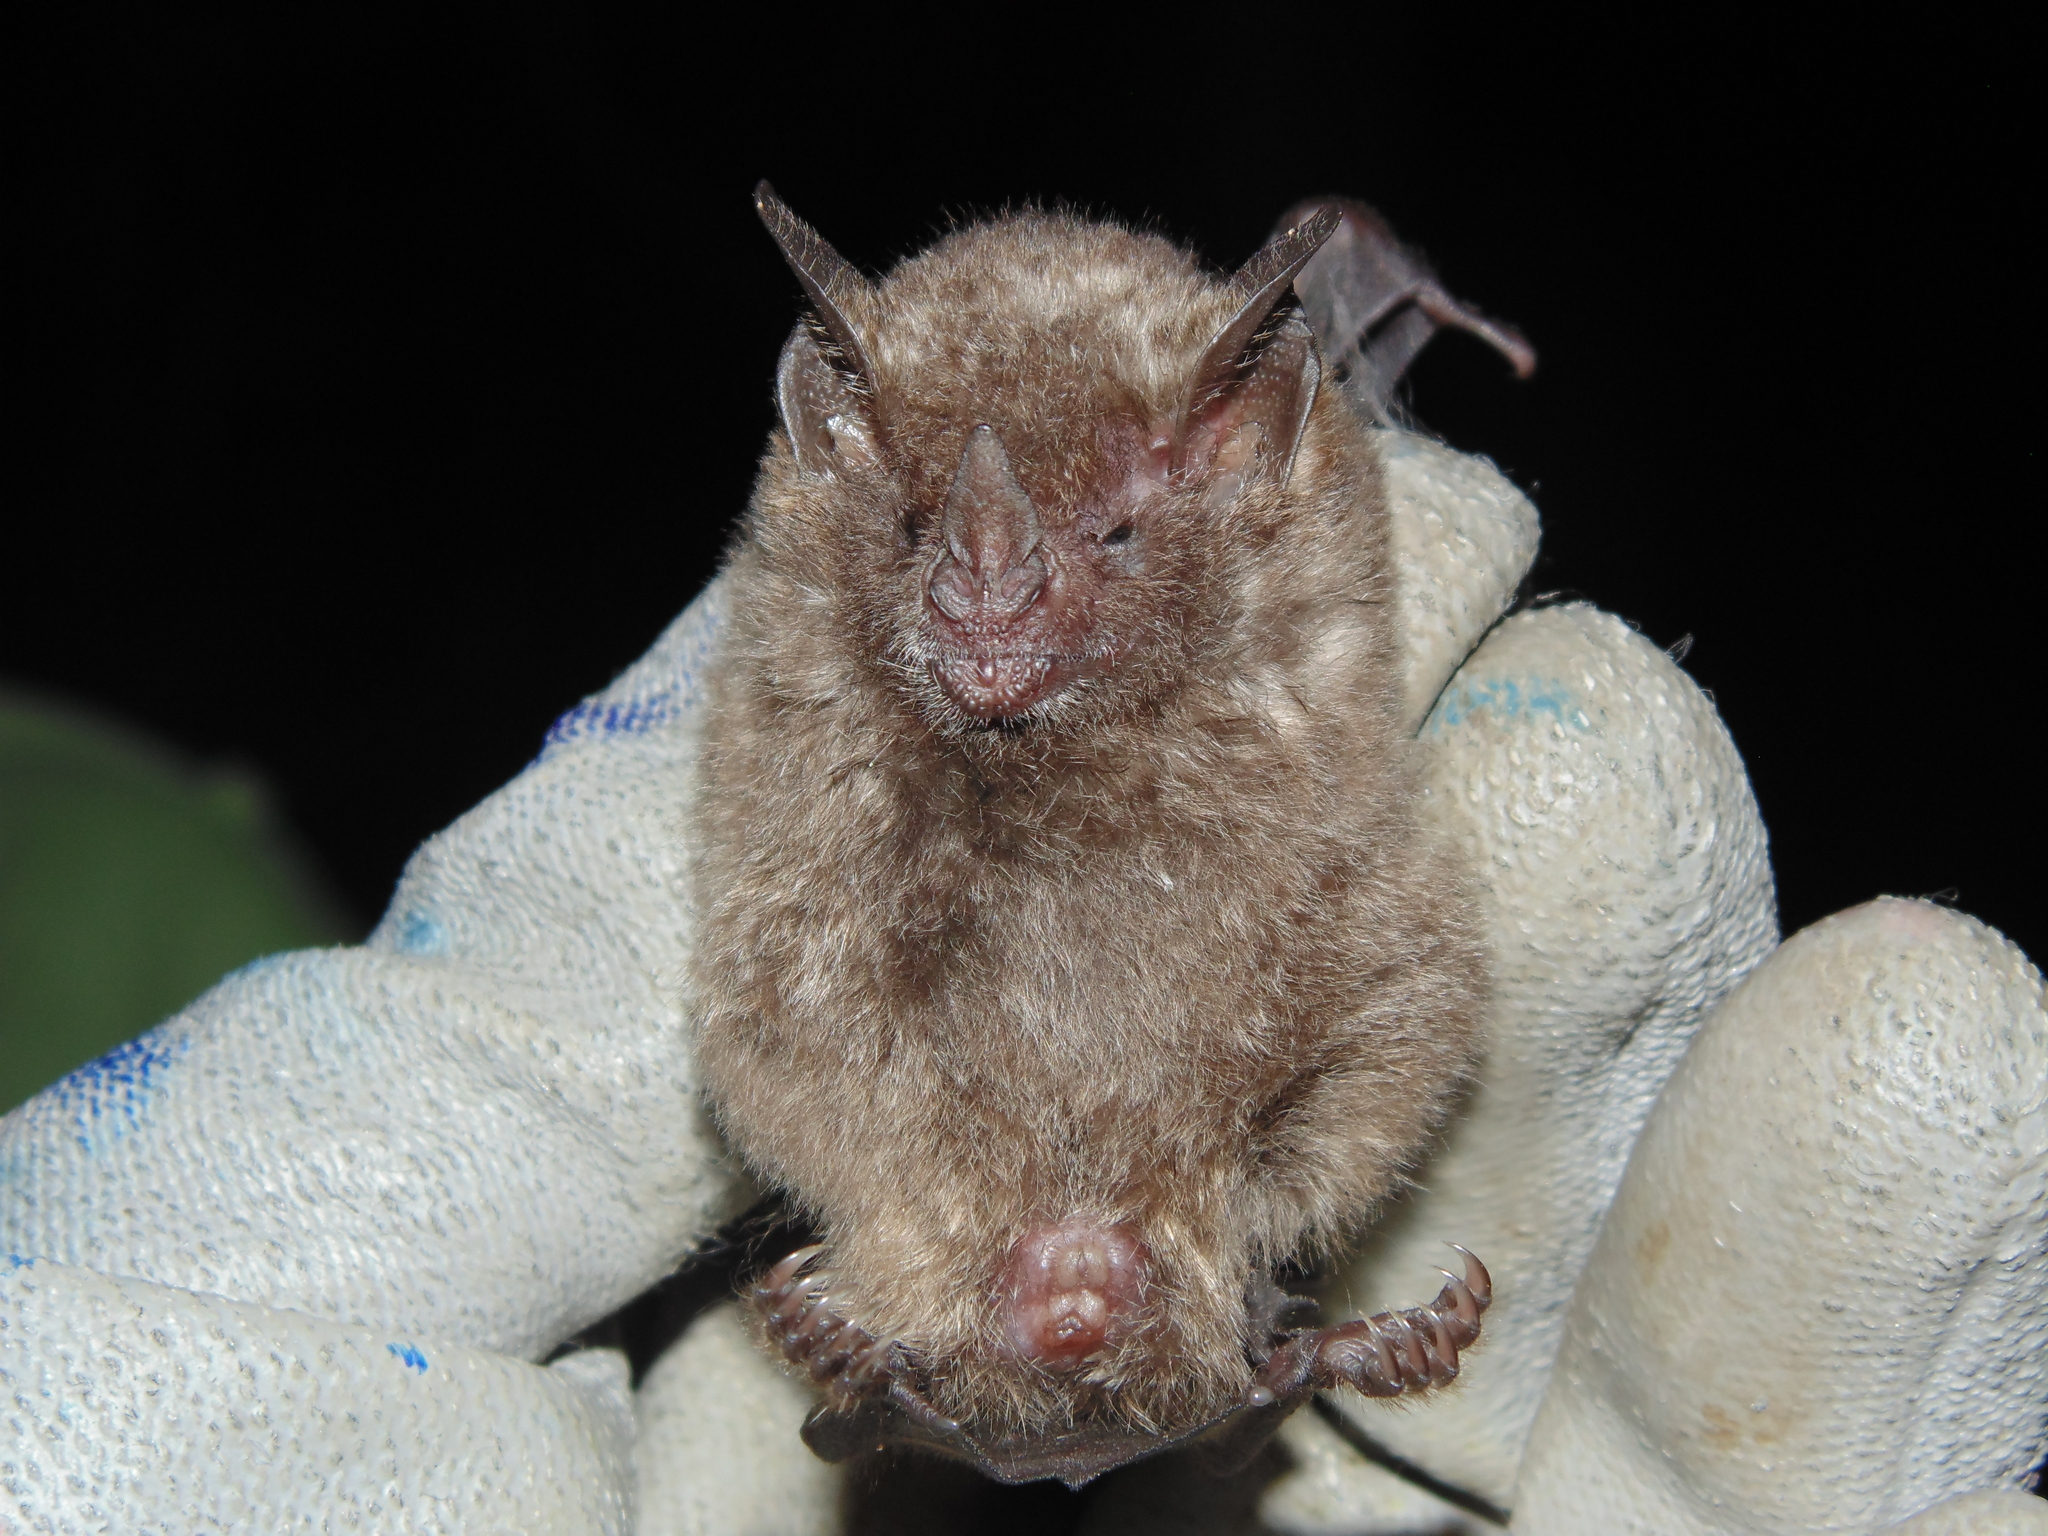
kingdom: Animalia
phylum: Chordata
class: Mammalia
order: Chiroptera
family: Phyllostomidae
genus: Carollia
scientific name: Carollia perspicillata
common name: Seba's short-tailed bat
